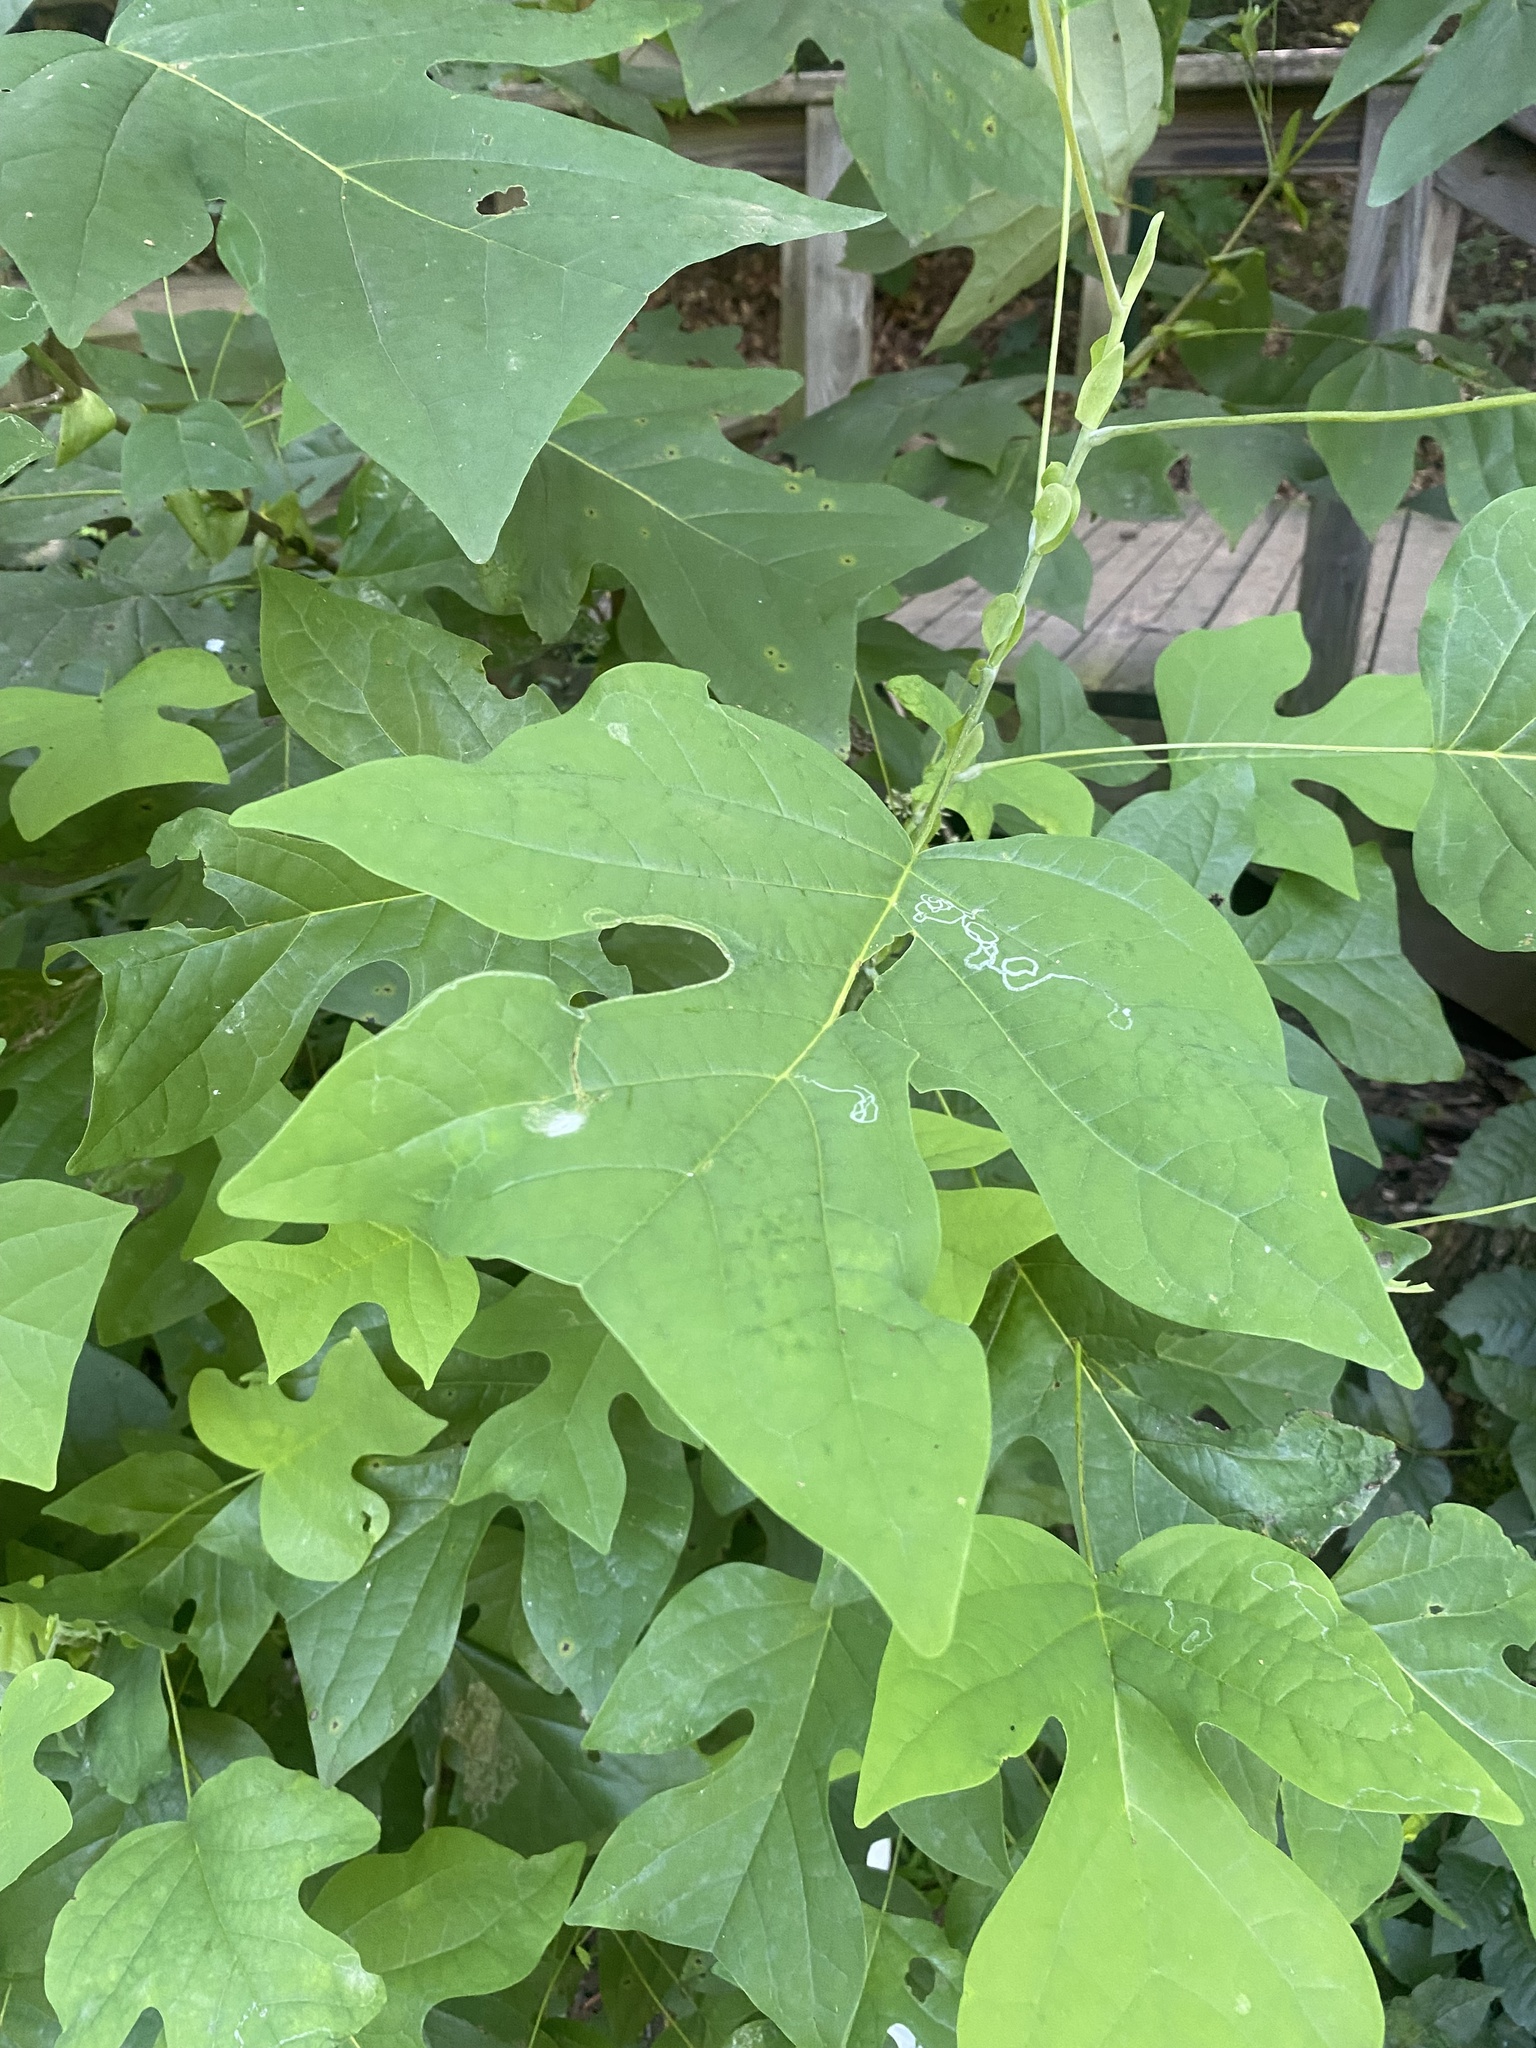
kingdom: Plantae
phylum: Tracheophyta
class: Magnoliopsida
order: Magnoliales
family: Magnoliaceae
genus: Liriodendron
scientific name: Liriodendron tulipifera
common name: Tulip tree
